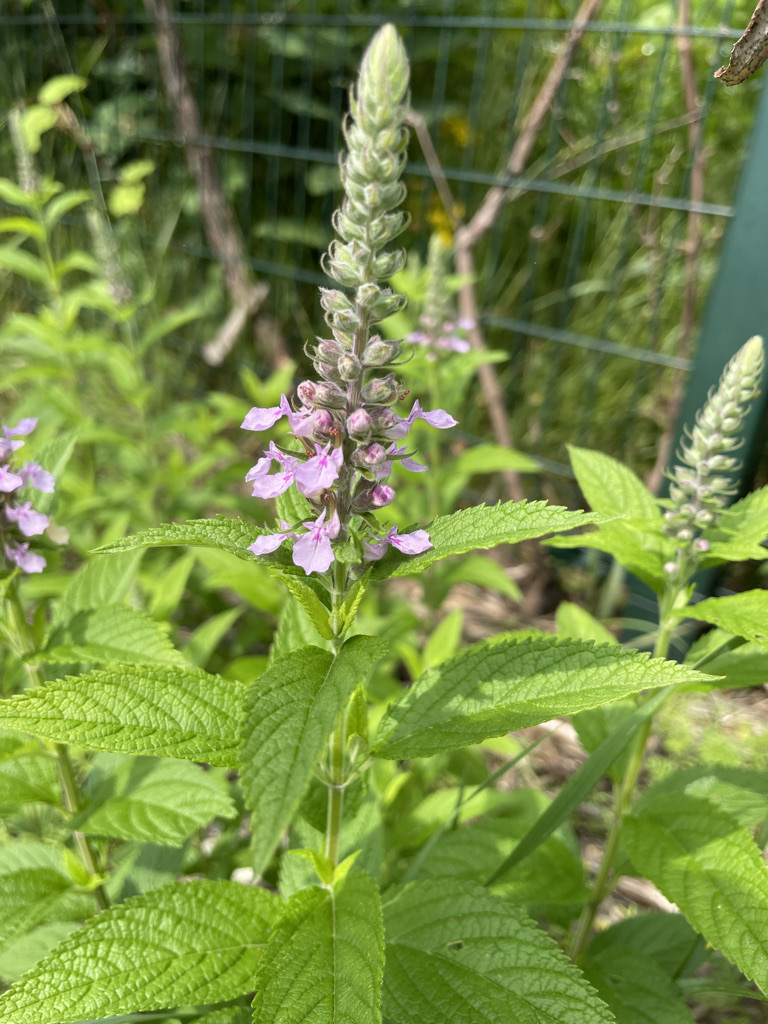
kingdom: Plantae
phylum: Tracheophyta
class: Magnoliopsida
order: Lamiales
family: Lamiaceae
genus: Teucrium
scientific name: Teucrium canadense
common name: American germander
